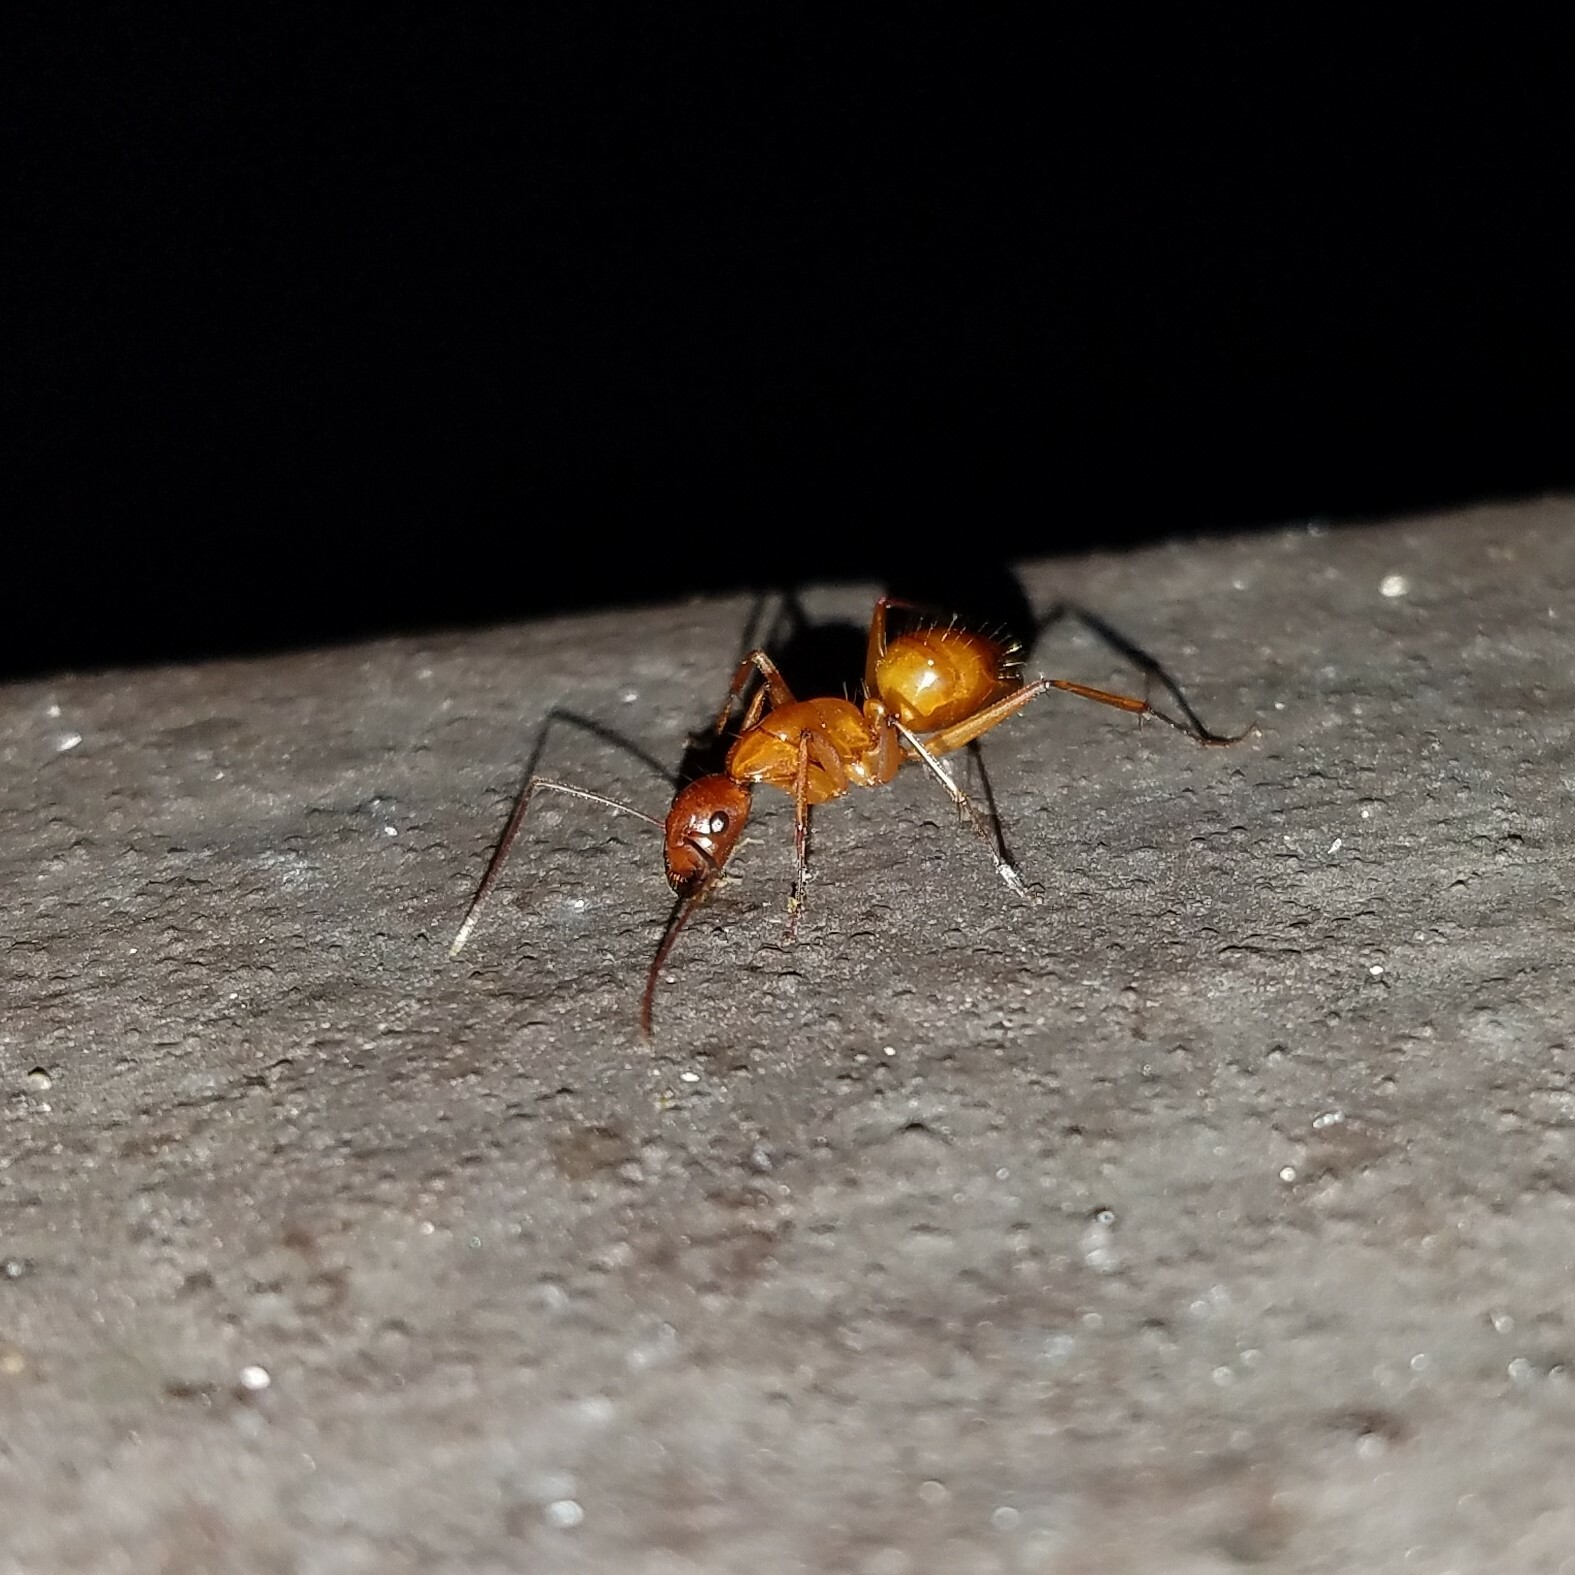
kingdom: Animalia
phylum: Arthropoda
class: Insecta
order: Hymenoptera
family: Formicidae
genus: Camponotus
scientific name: Camponotus castaneus
